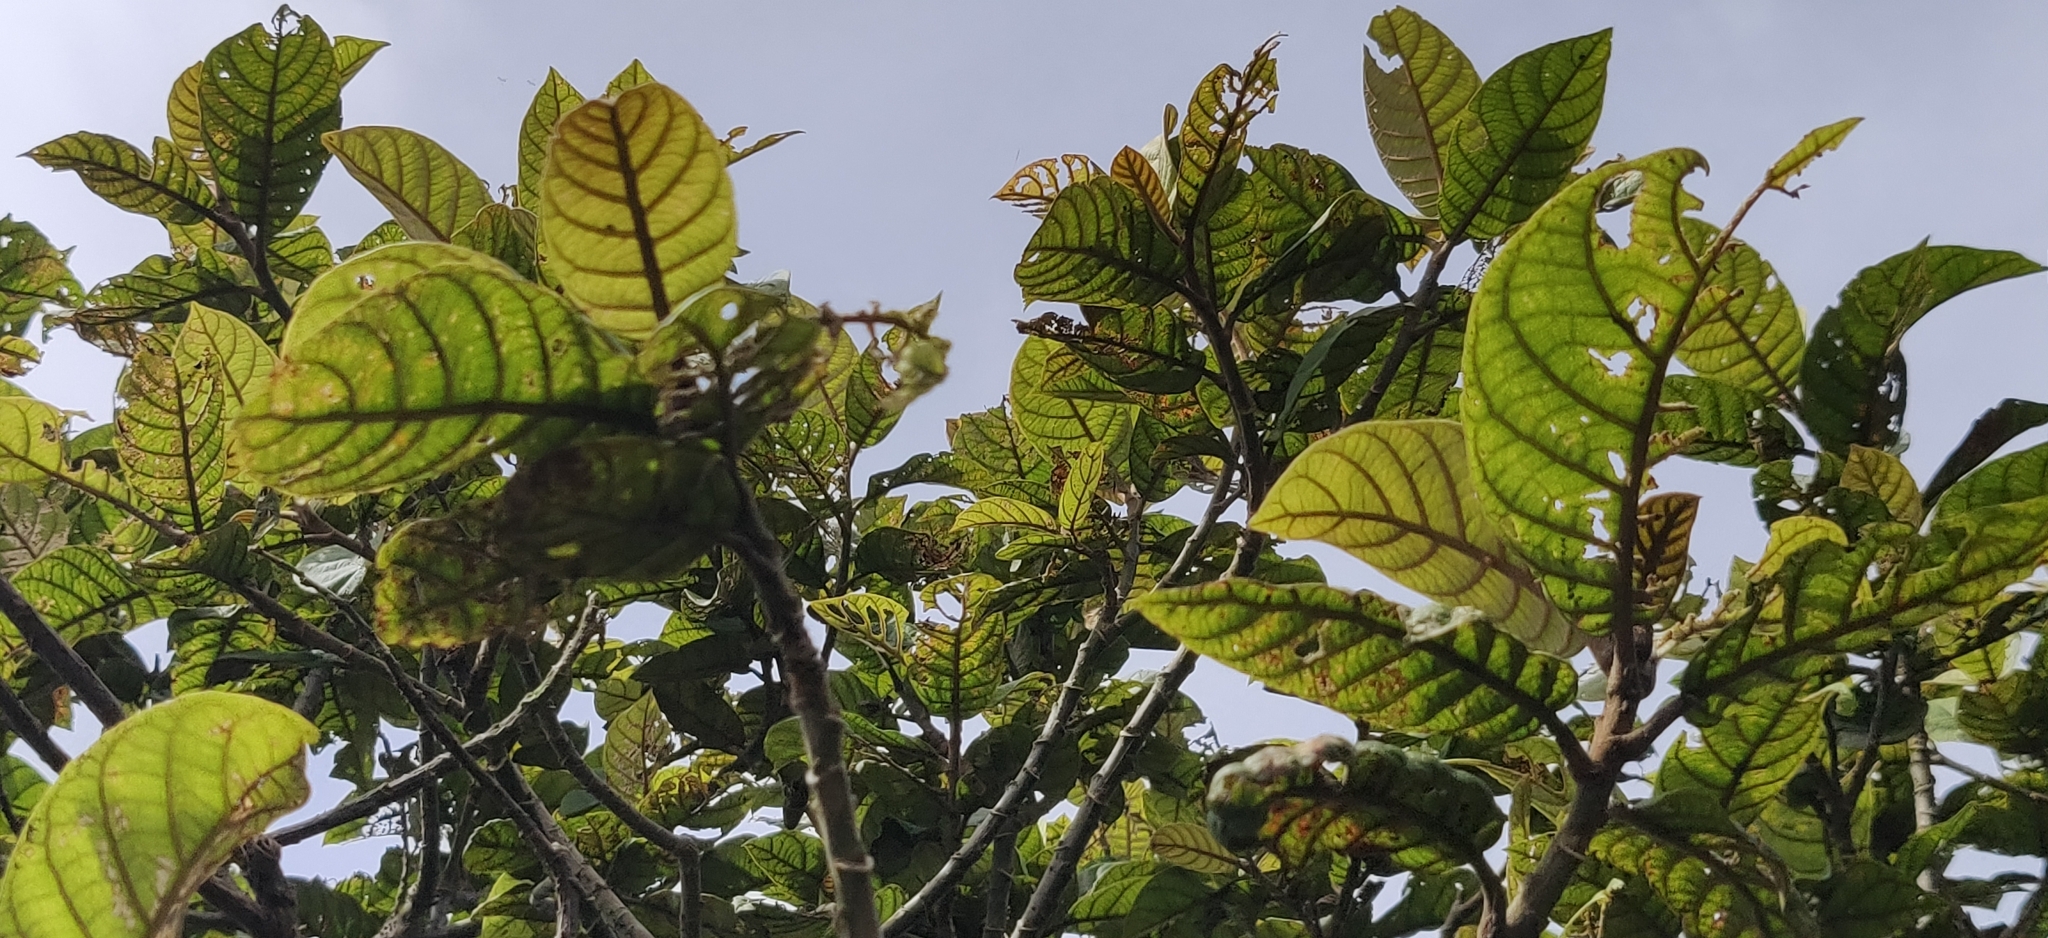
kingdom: Plantae
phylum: Tracheophyta
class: Magnoliopsida
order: Asterales
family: Asteraceae
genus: Strobocalyx
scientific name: Strobocalyx arborea
